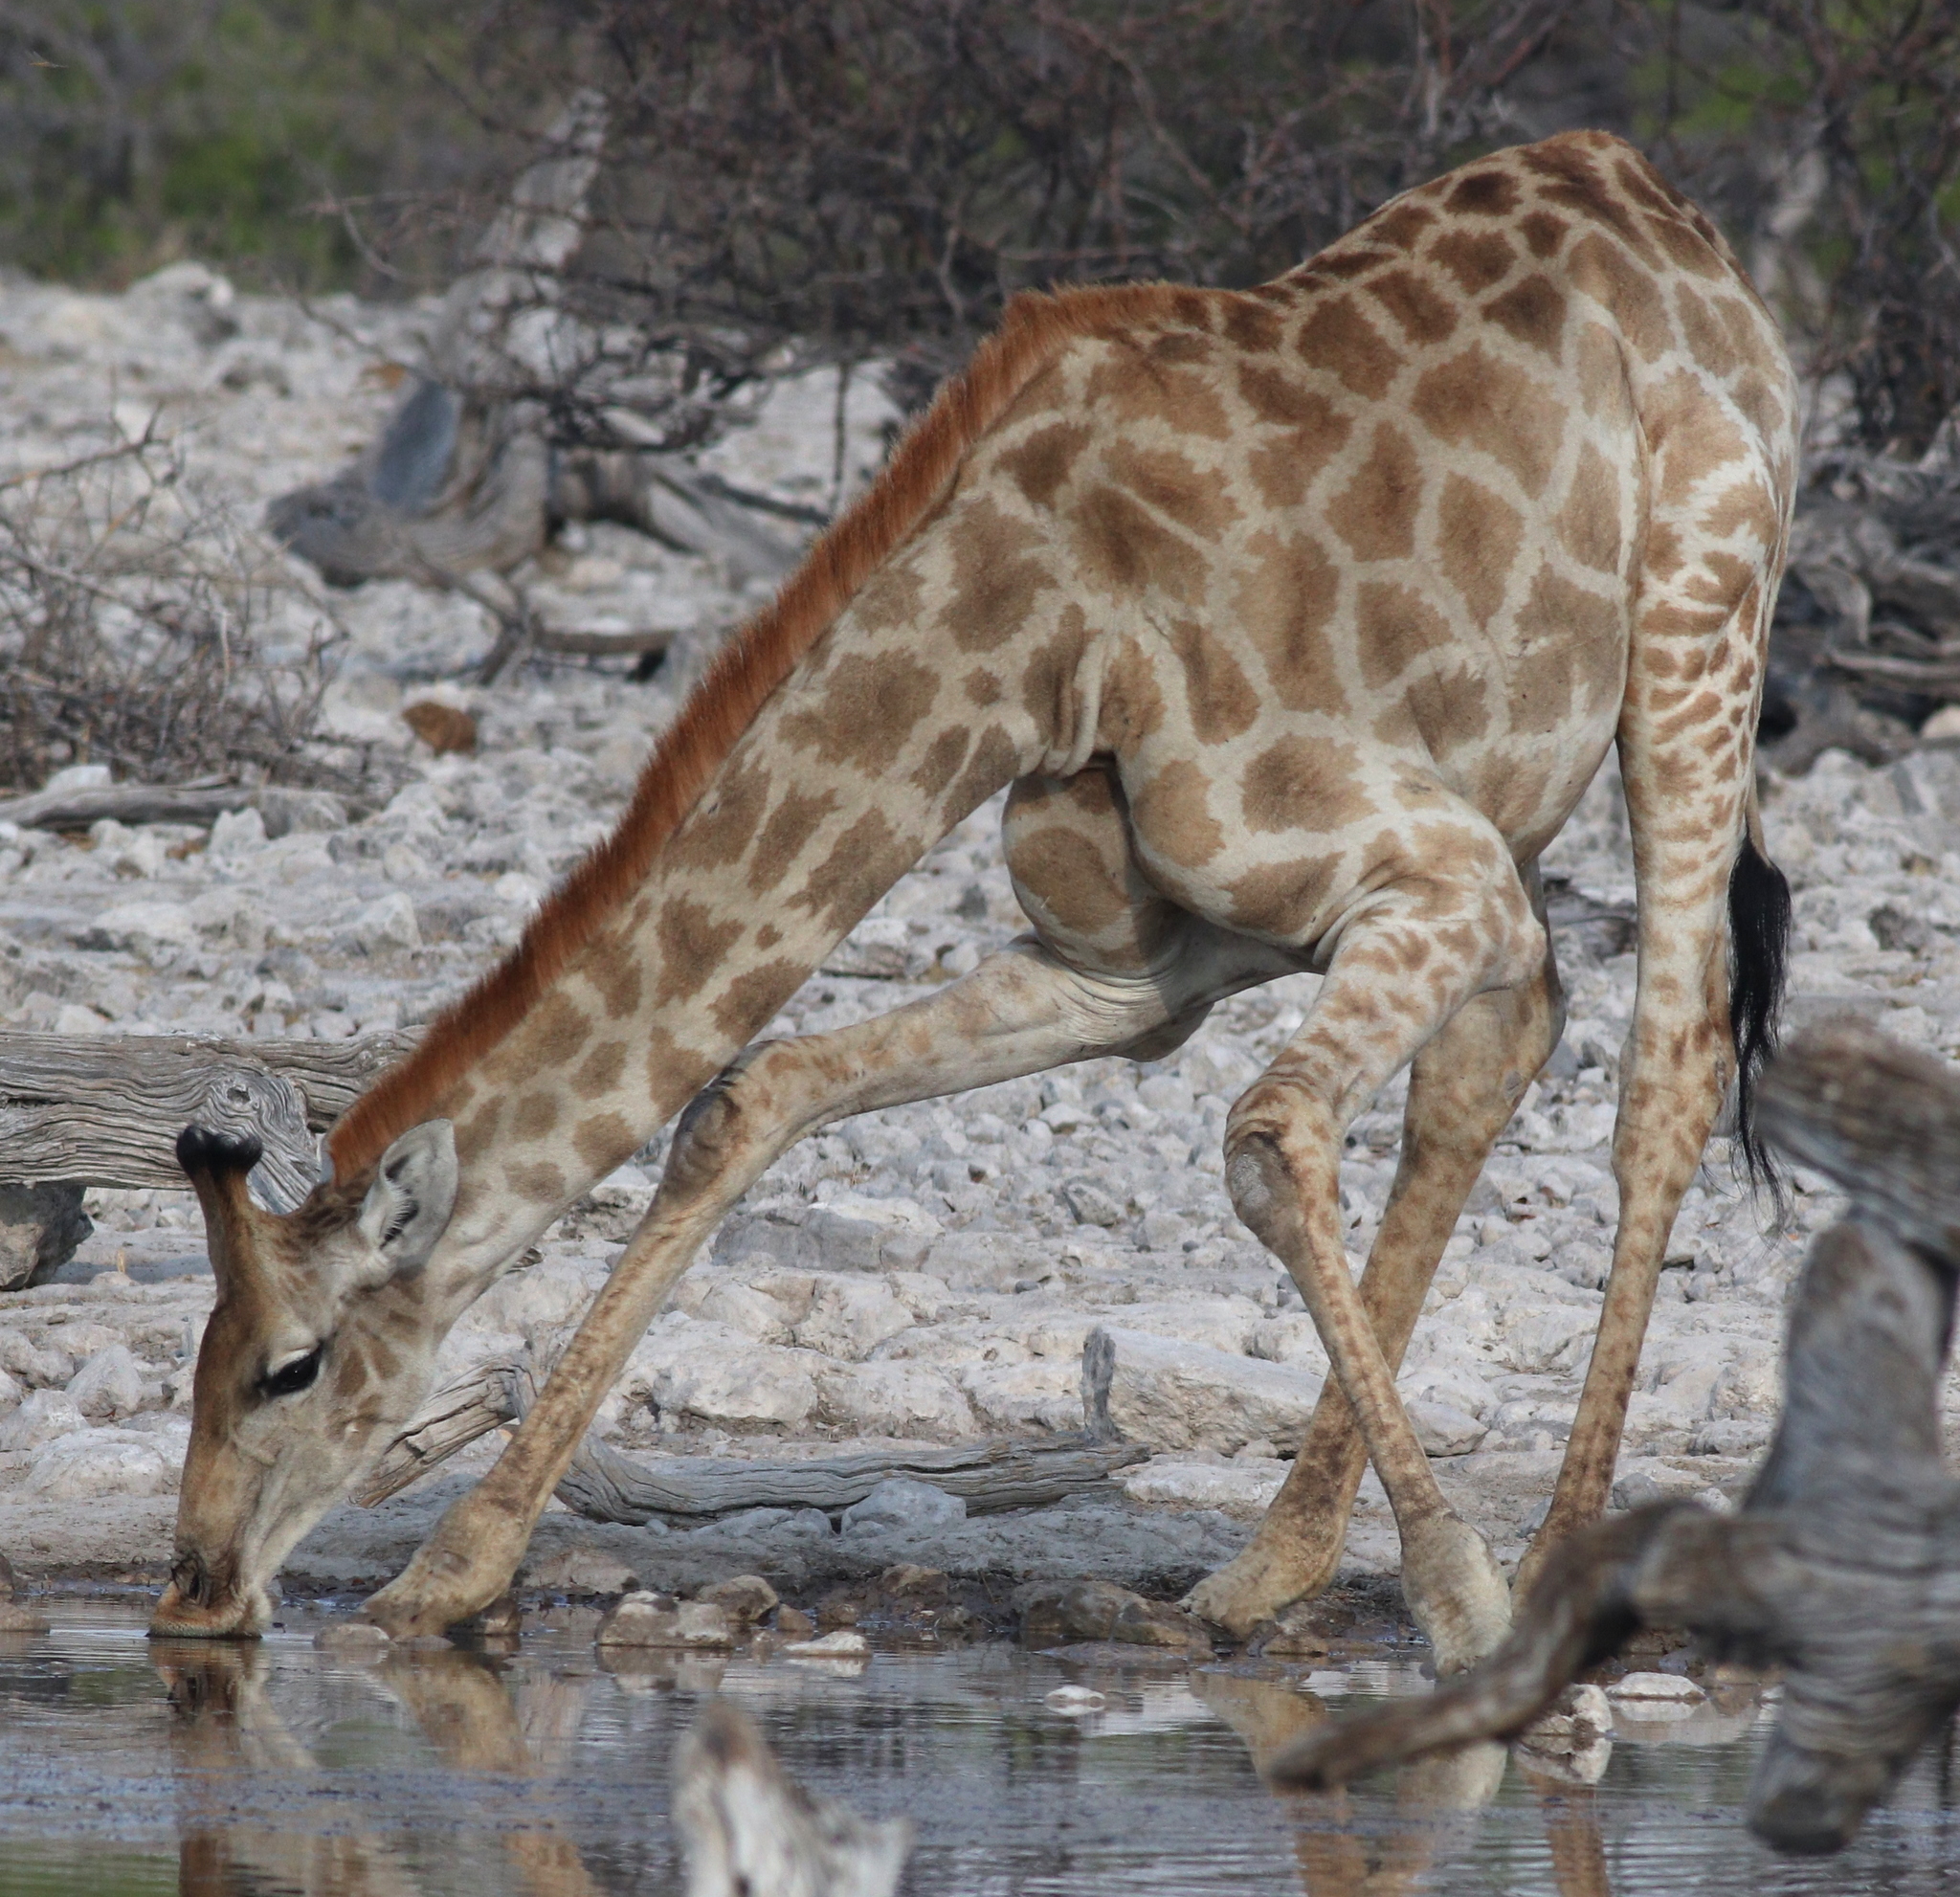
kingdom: Animalia
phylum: Chordata
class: Mammalia
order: Artiodactyla
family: Giraffidae
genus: Giraffa
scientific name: Giraffa giraffa
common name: Southern giraffe
